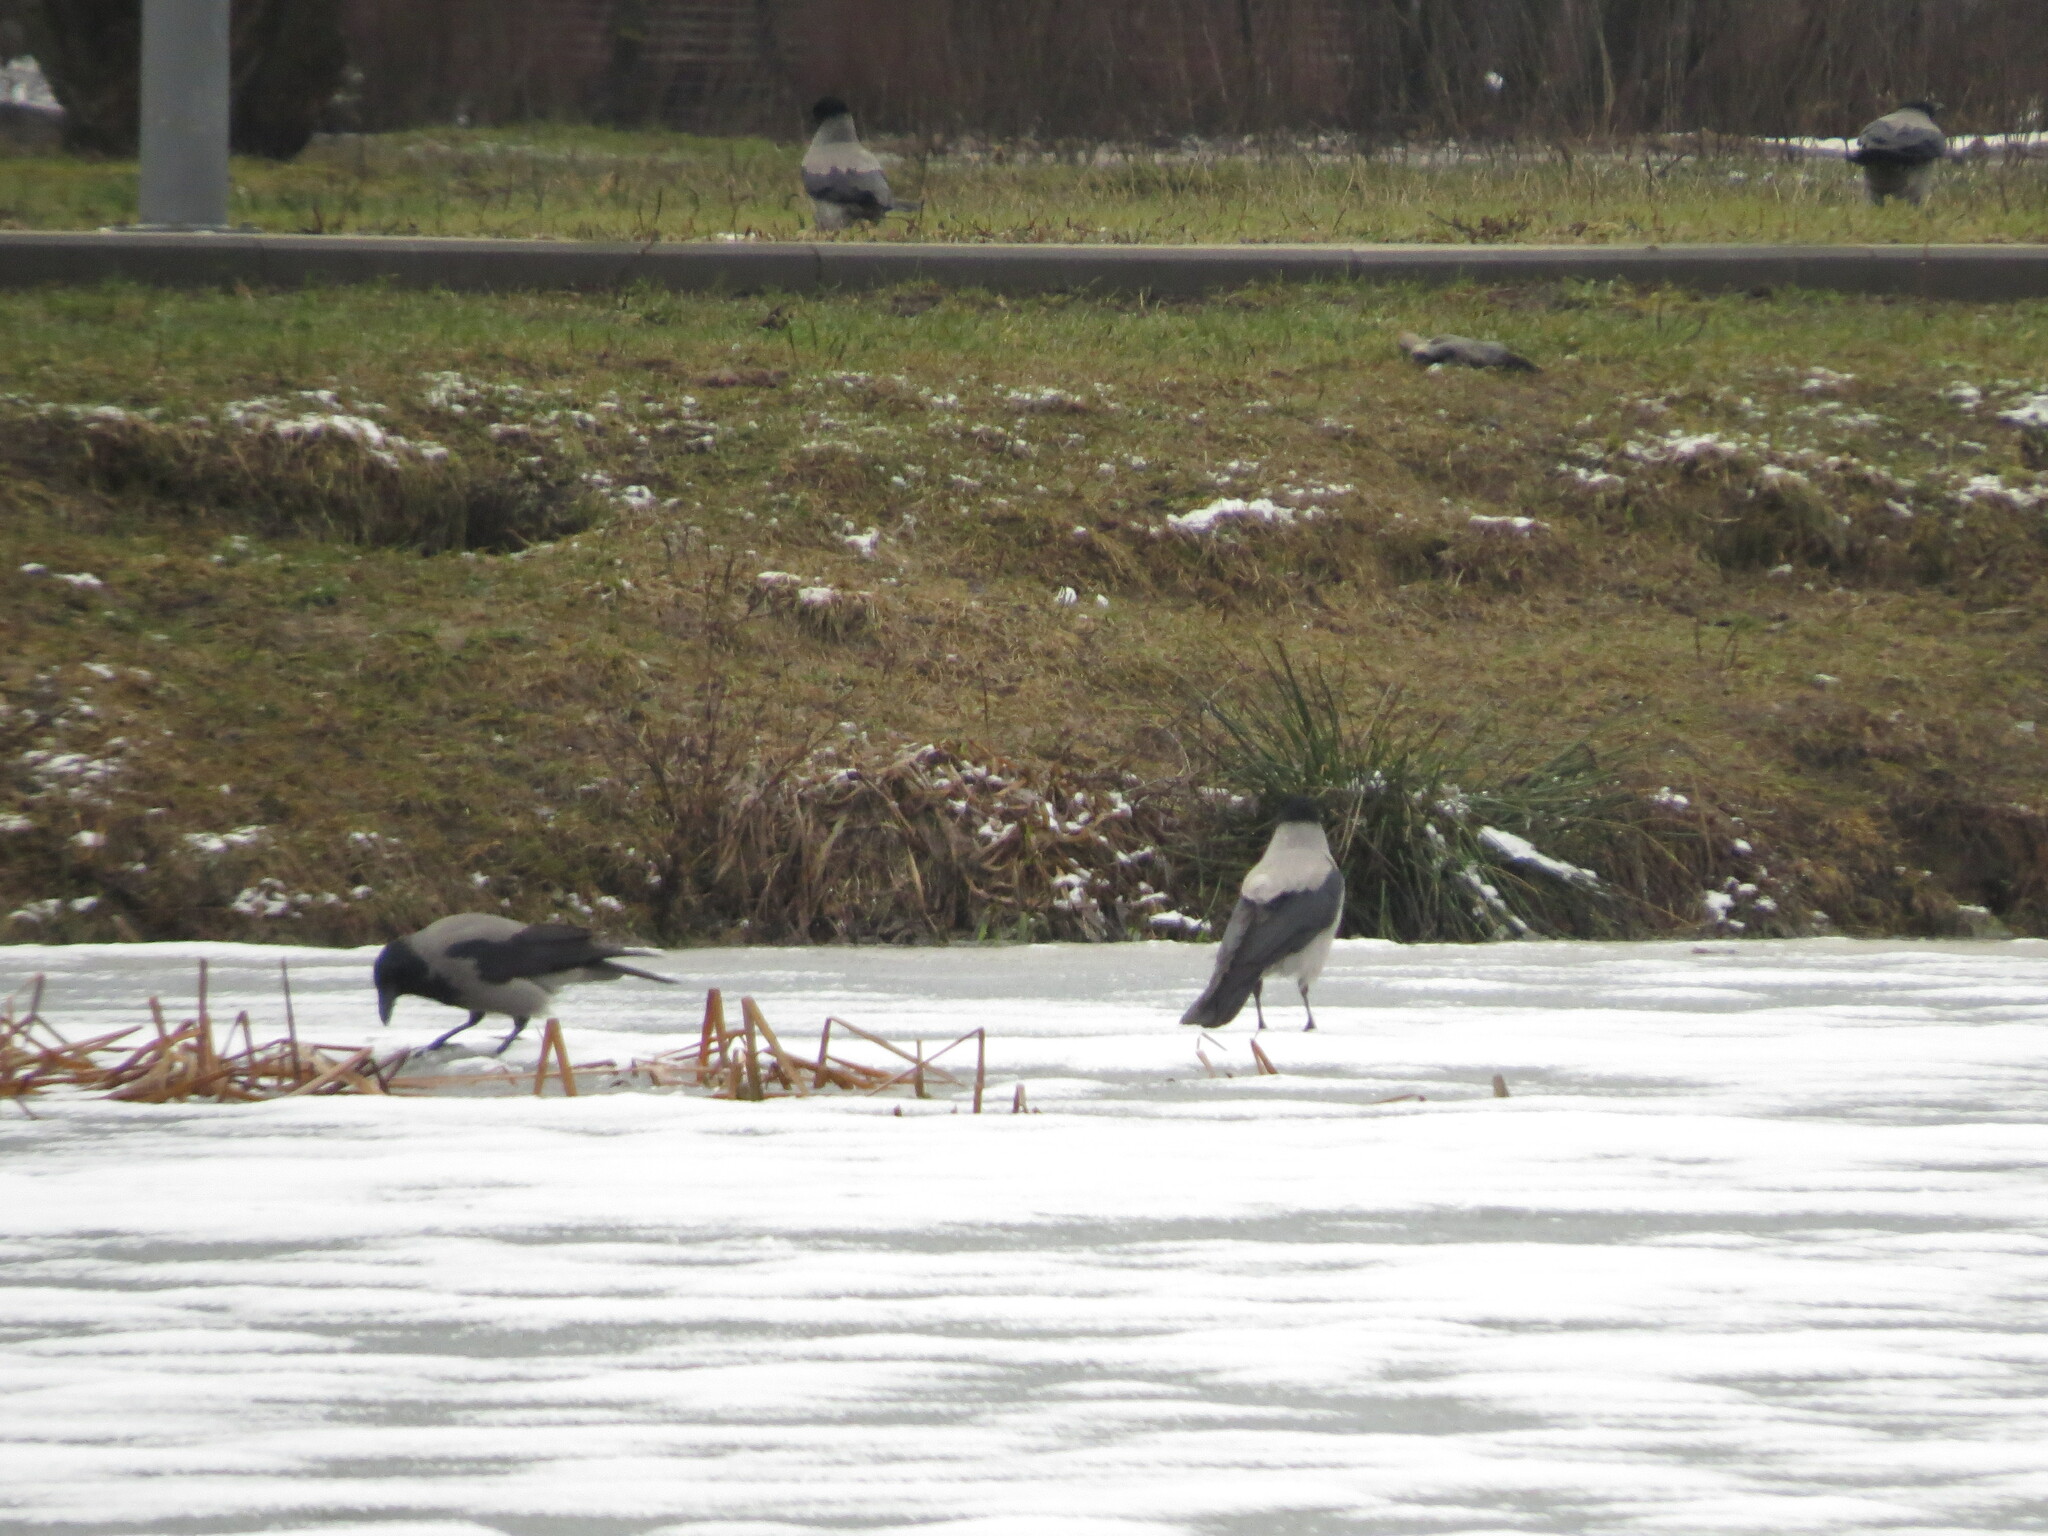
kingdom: Animalia
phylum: Chordata
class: Aves
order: Passeriformes
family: Corvidae
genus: Corvus
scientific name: Corvus cornix
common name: Hooded crow
